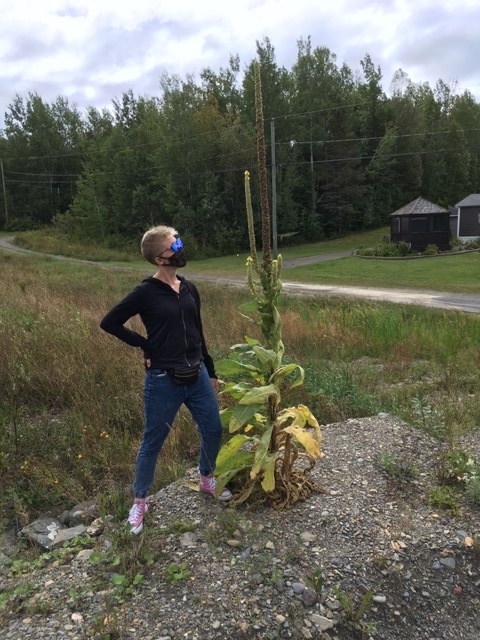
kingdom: Plantae
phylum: Tracheophyta
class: Magnoliopsida
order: Lamiales
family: Scrophulariaceae
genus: Verbascum
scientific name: Verbascum thapsus
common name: Common mullein
